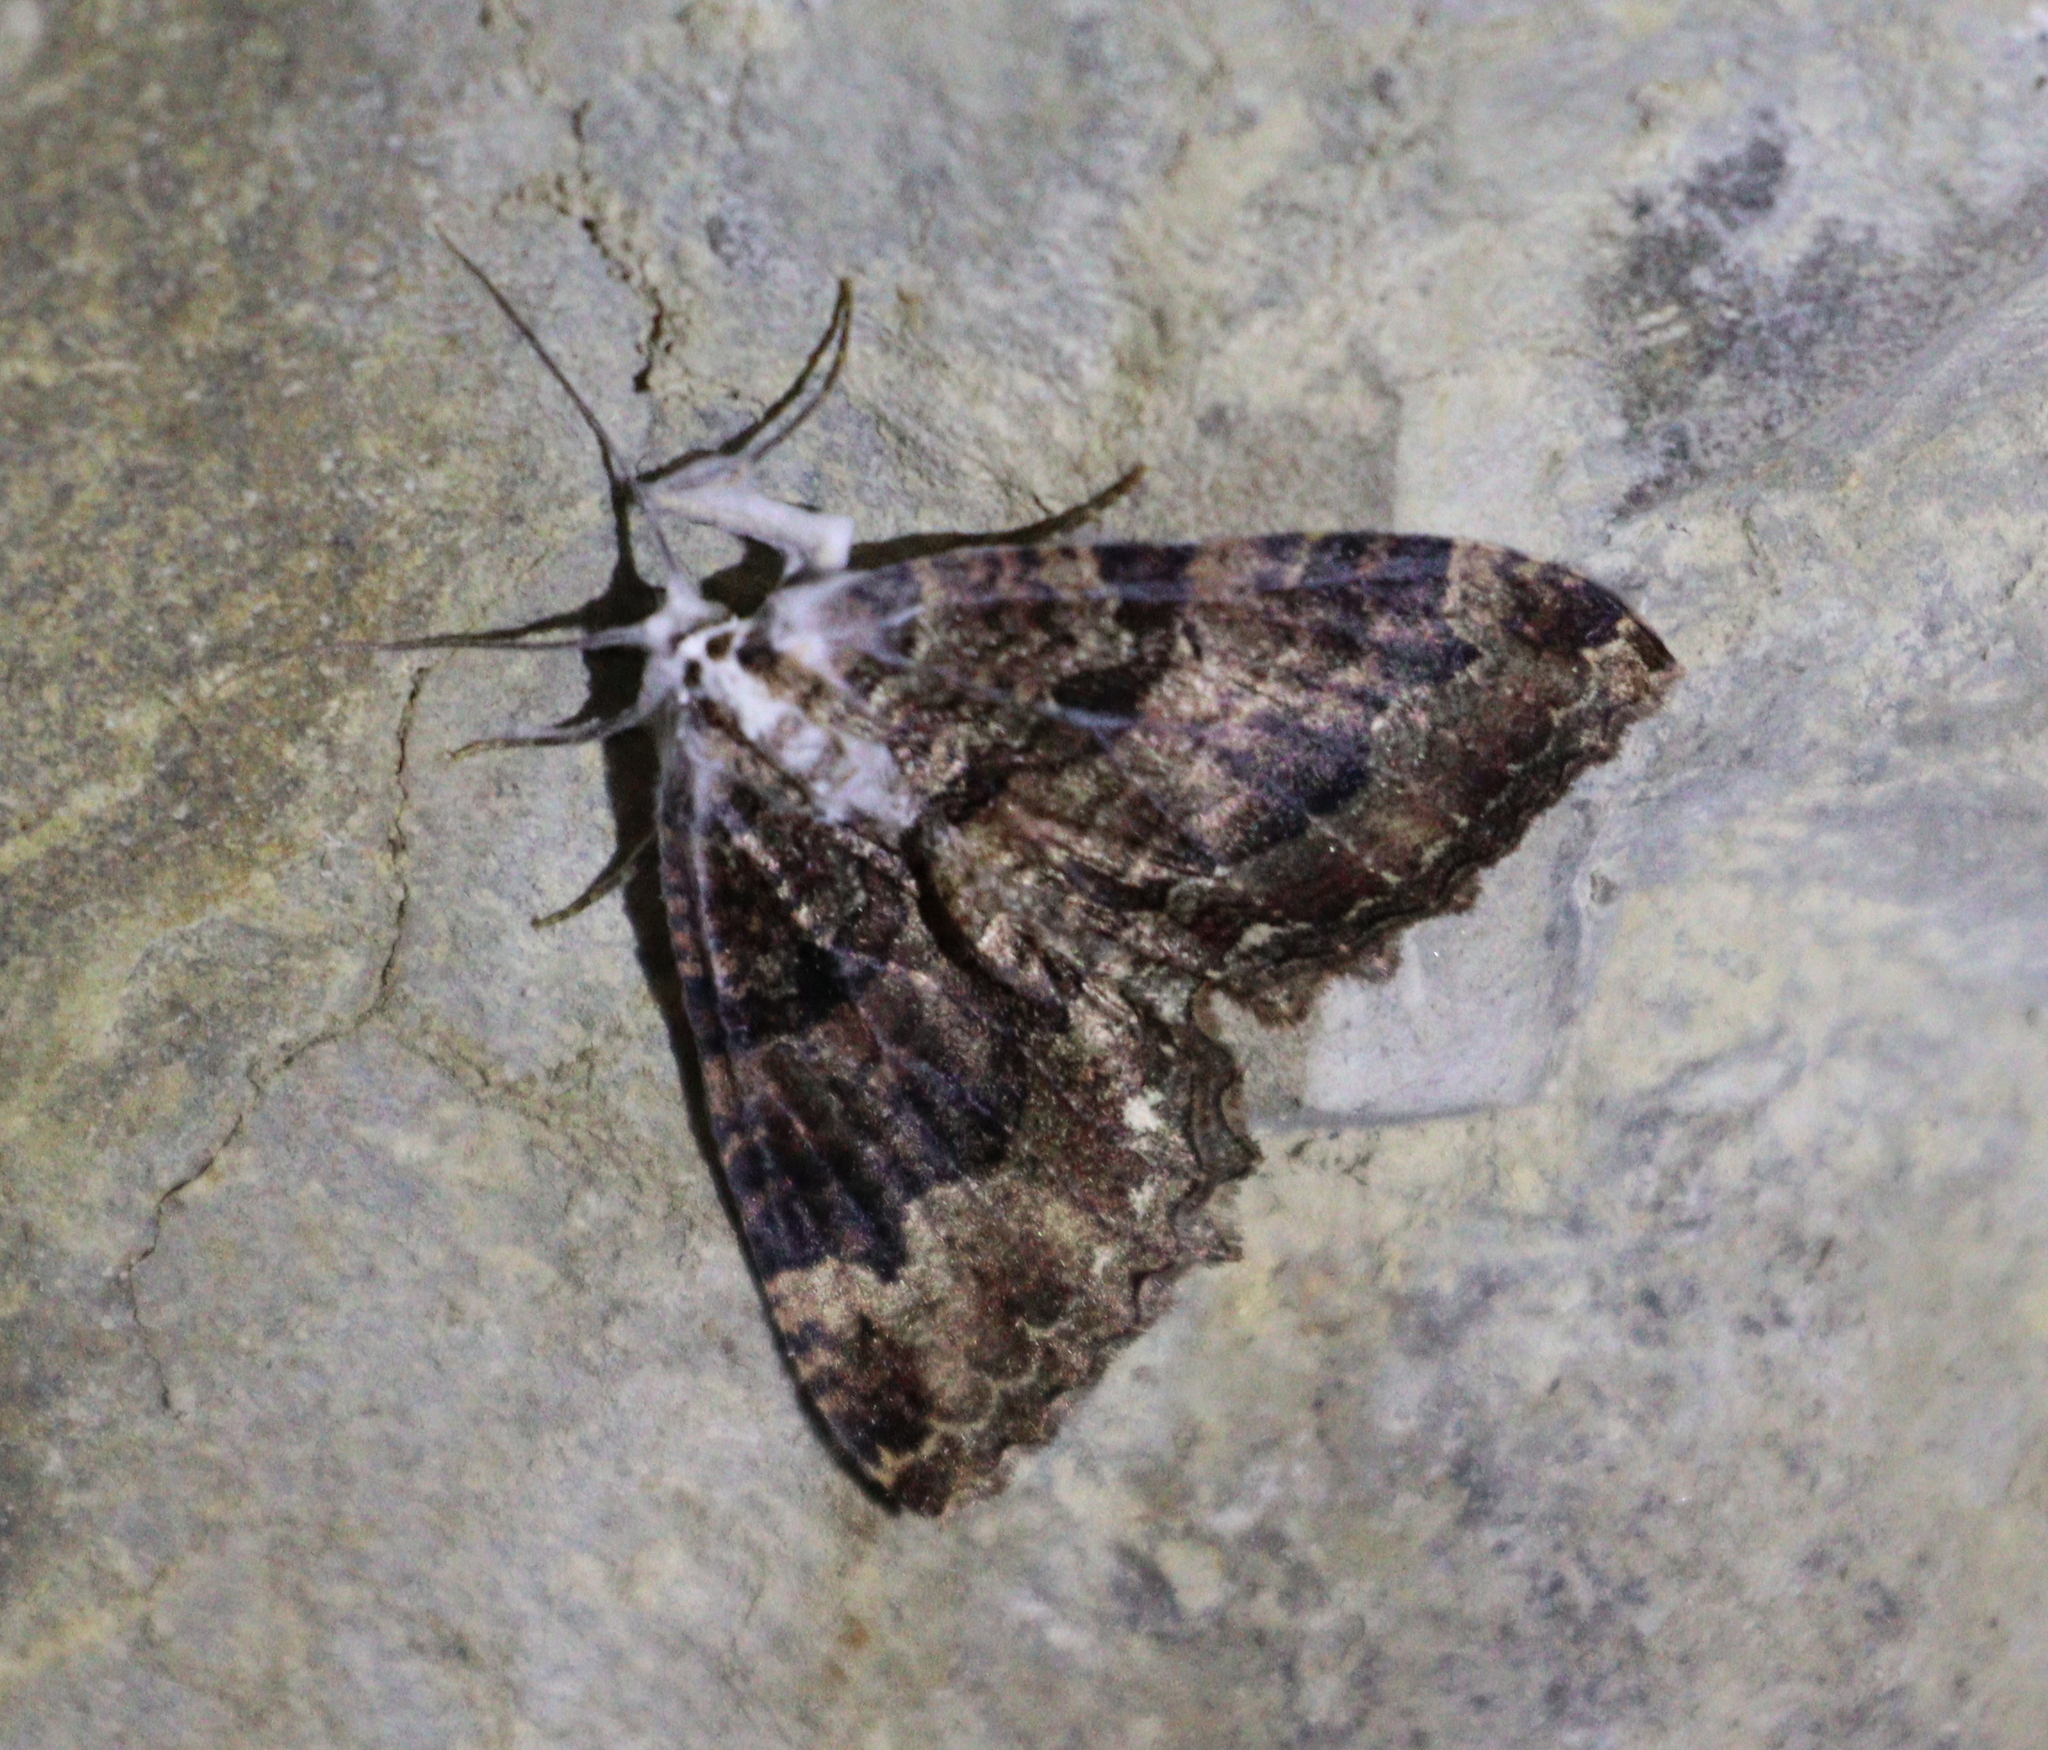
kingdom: Animalia
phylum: Arthropoda
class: Insecta
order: Lepidoptera
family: Geometridae
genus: Triphosa
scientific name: Triphosa dubitata
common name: Tissue
